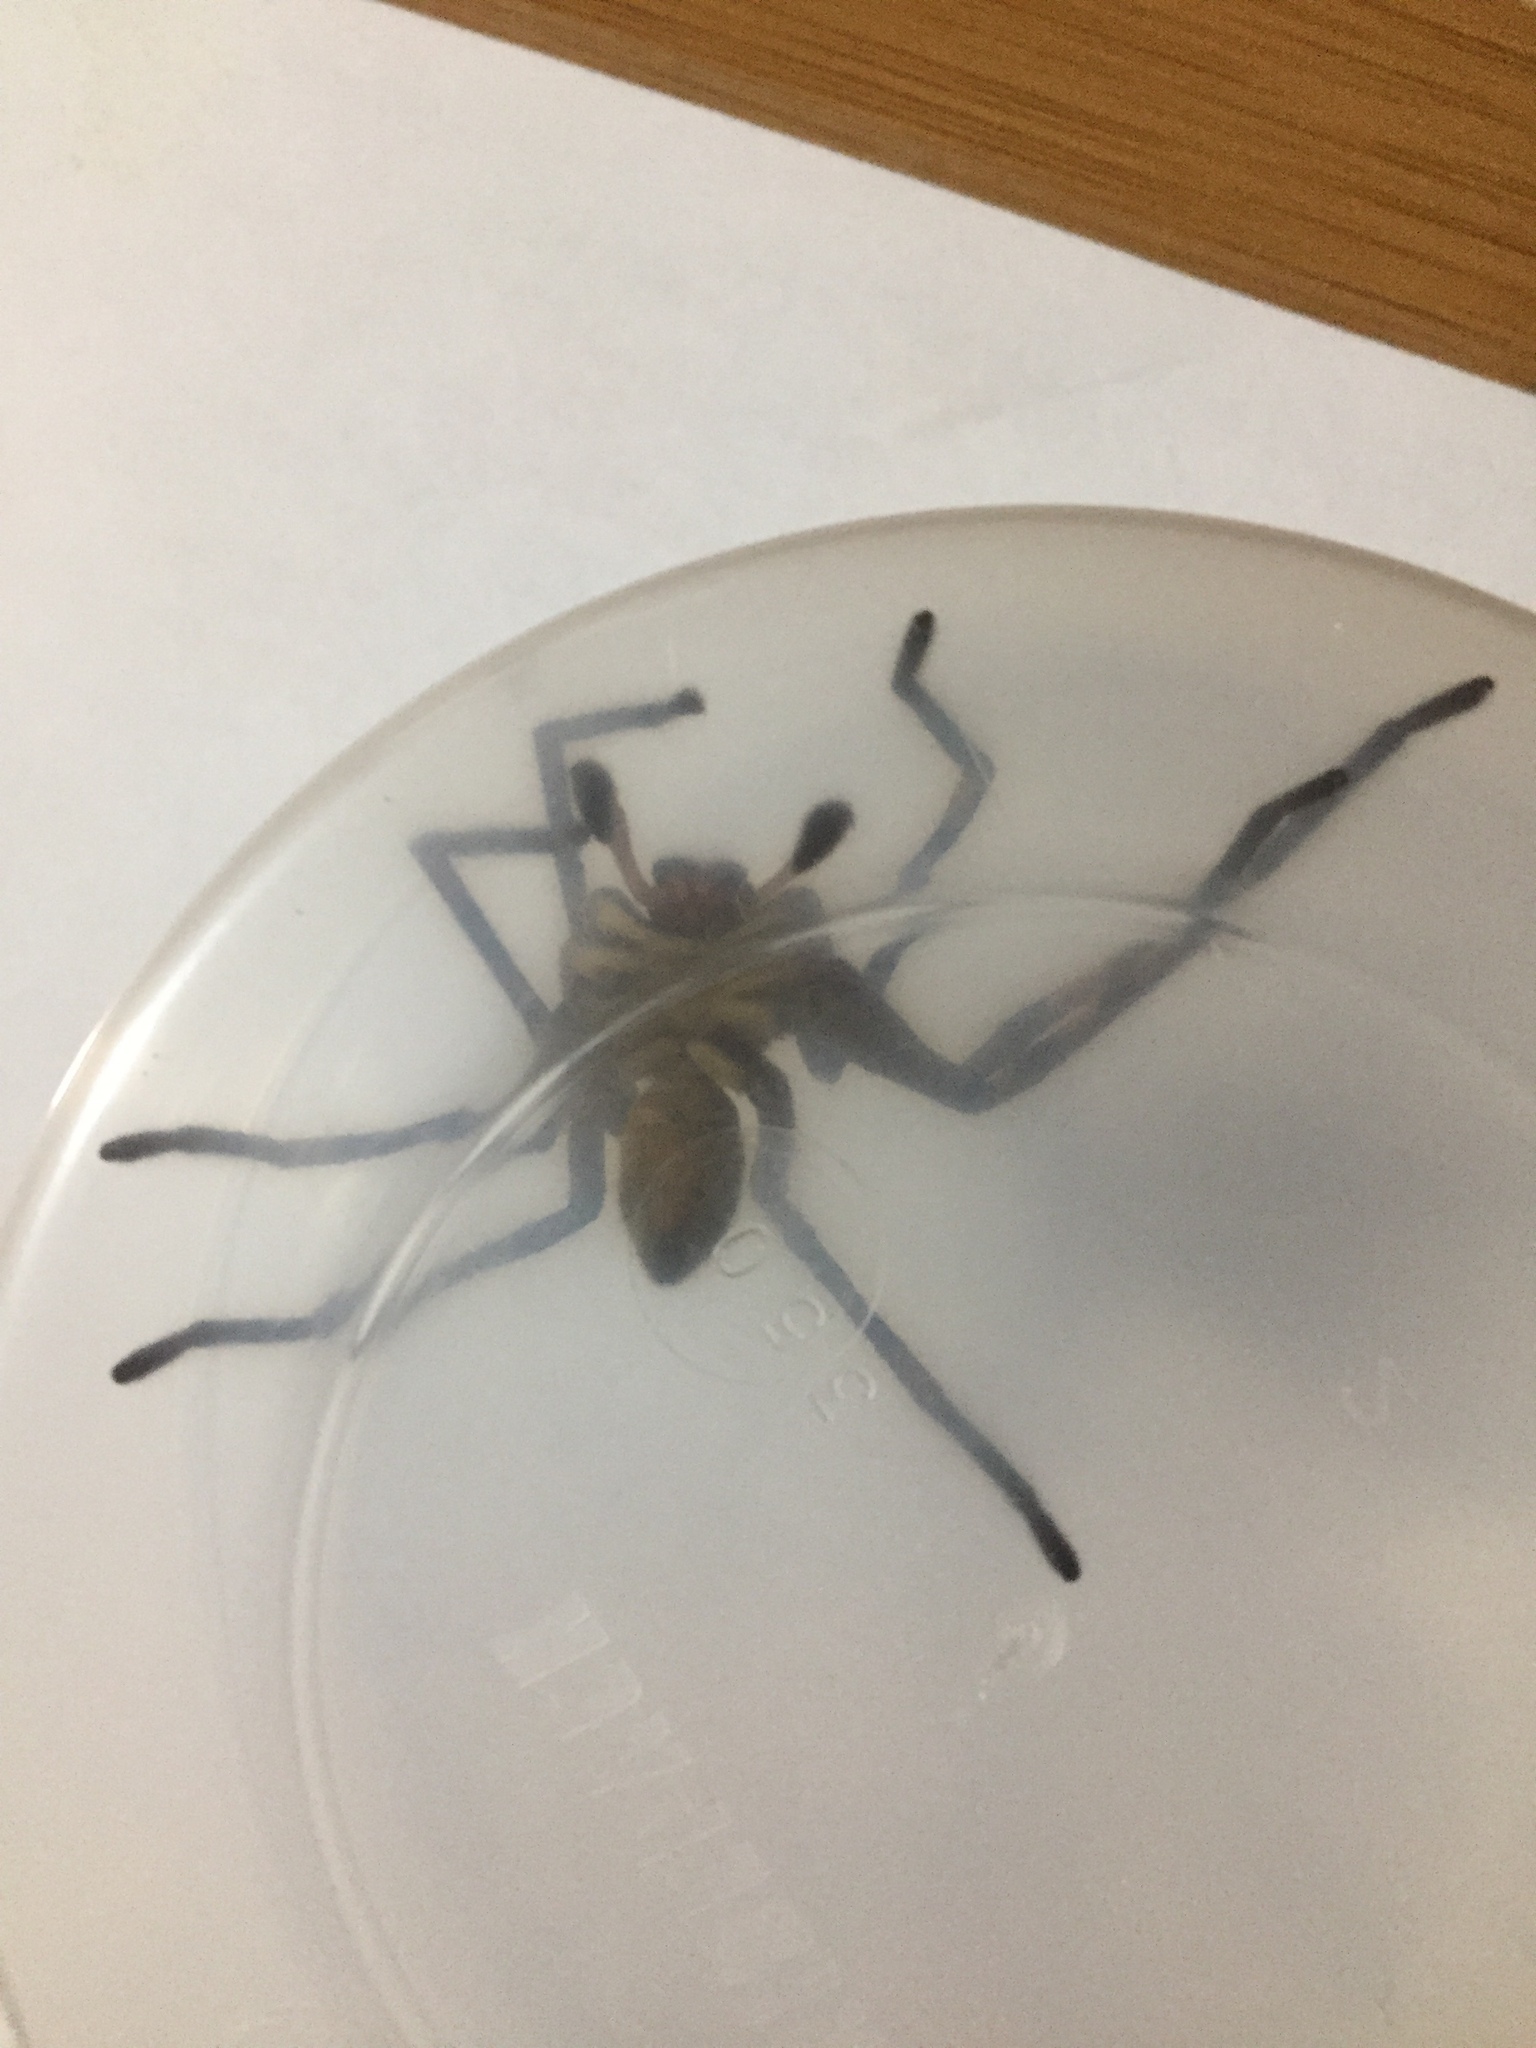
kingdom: Animalia
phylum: Arthropoda
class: Arachnida
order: Araneae
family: Sparassidae
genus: Palystes
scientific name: Palystes superciliosus
